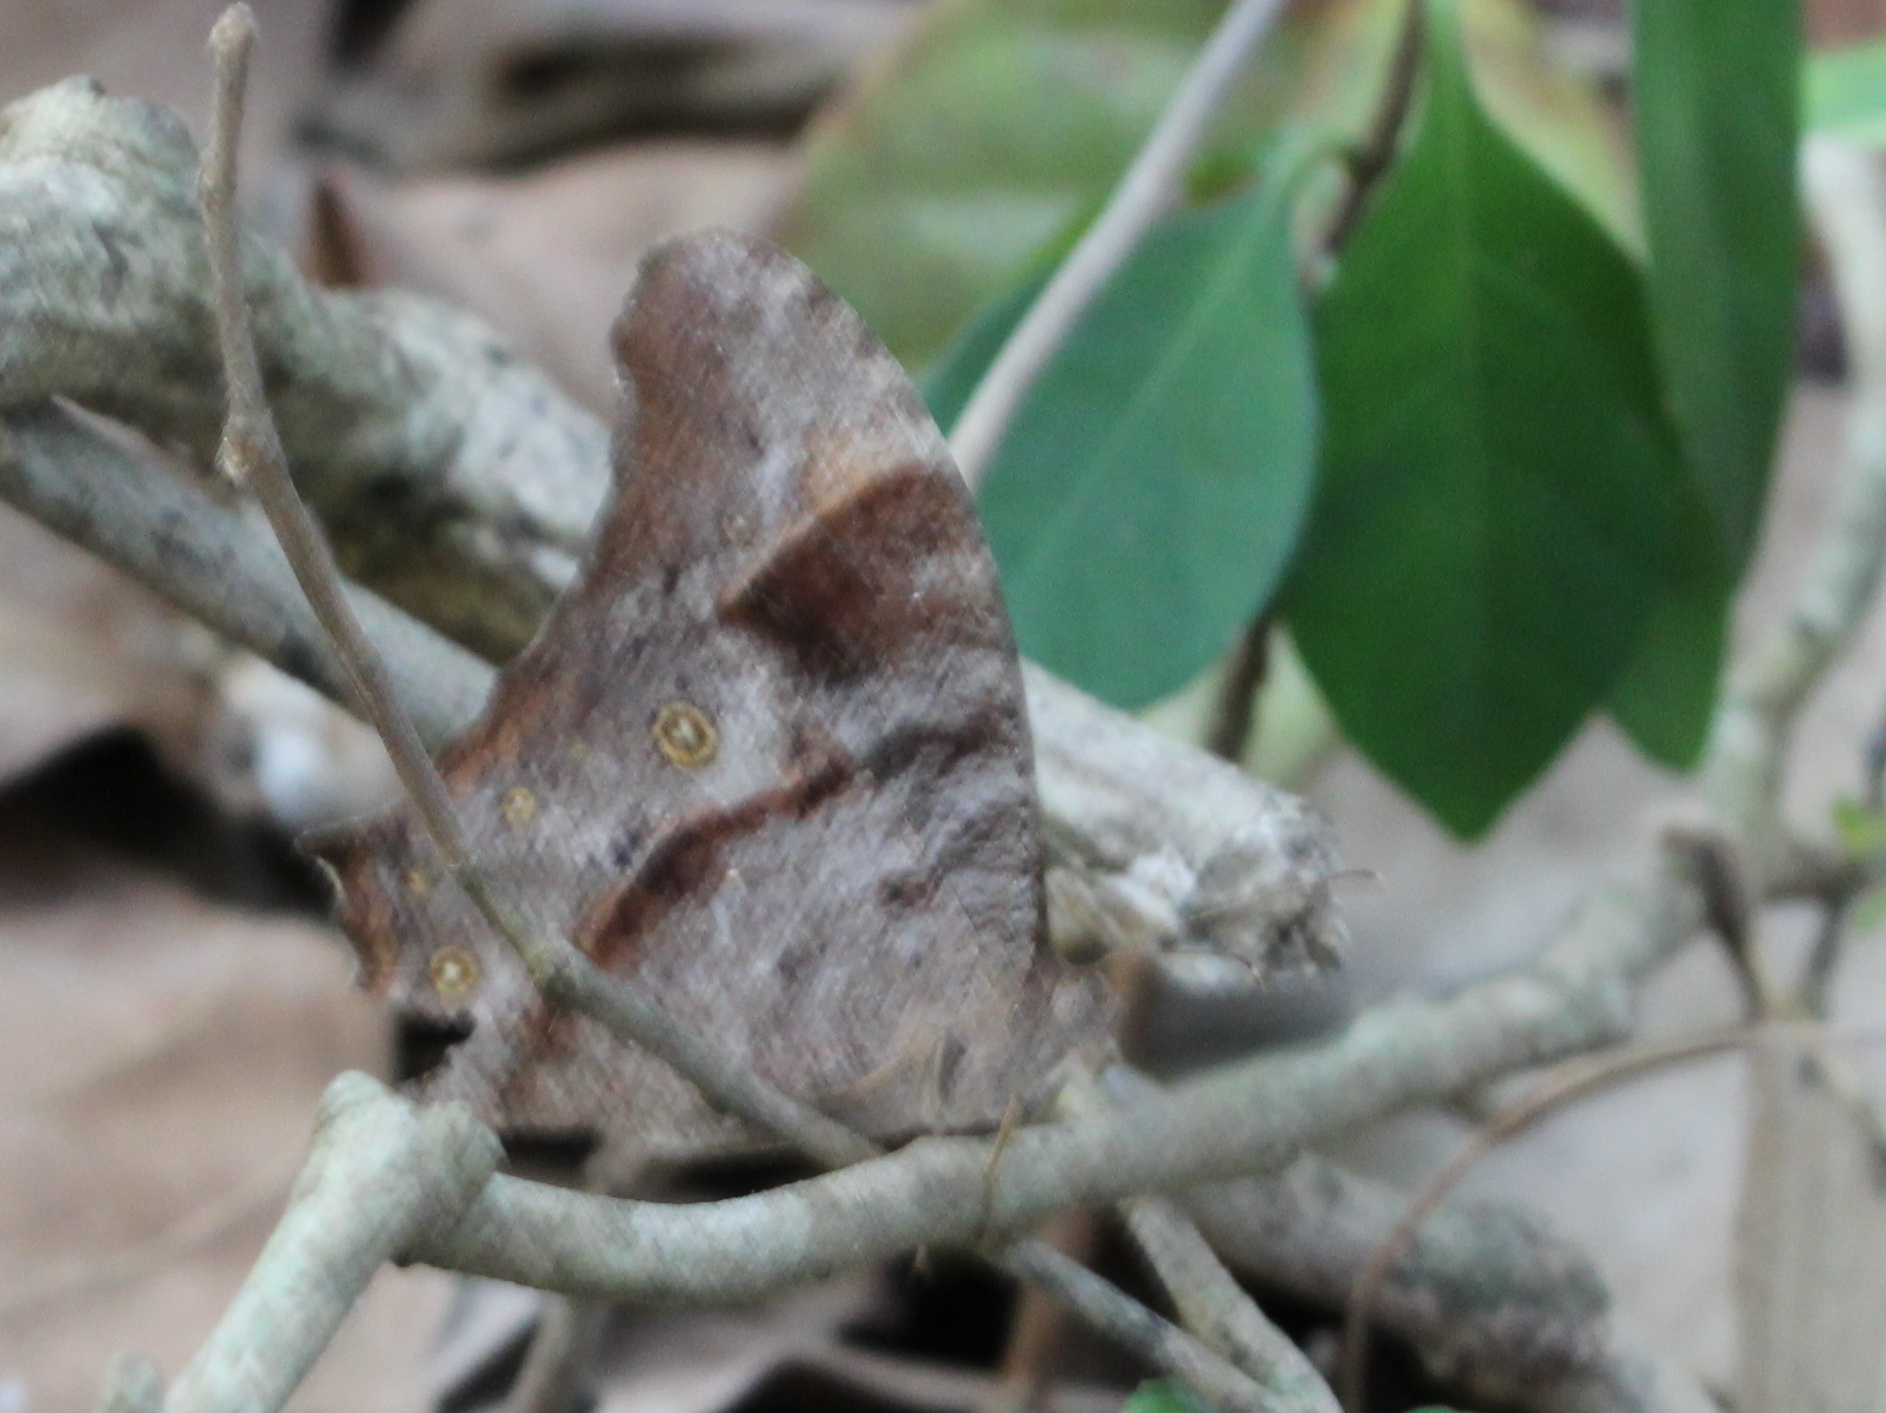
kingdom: Animalia
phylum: Arthropoda
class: Insecta
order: Lepidoptera
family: Nymphalidae
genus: Melanitis
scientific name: Melanitis leda
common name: Twilight brown
